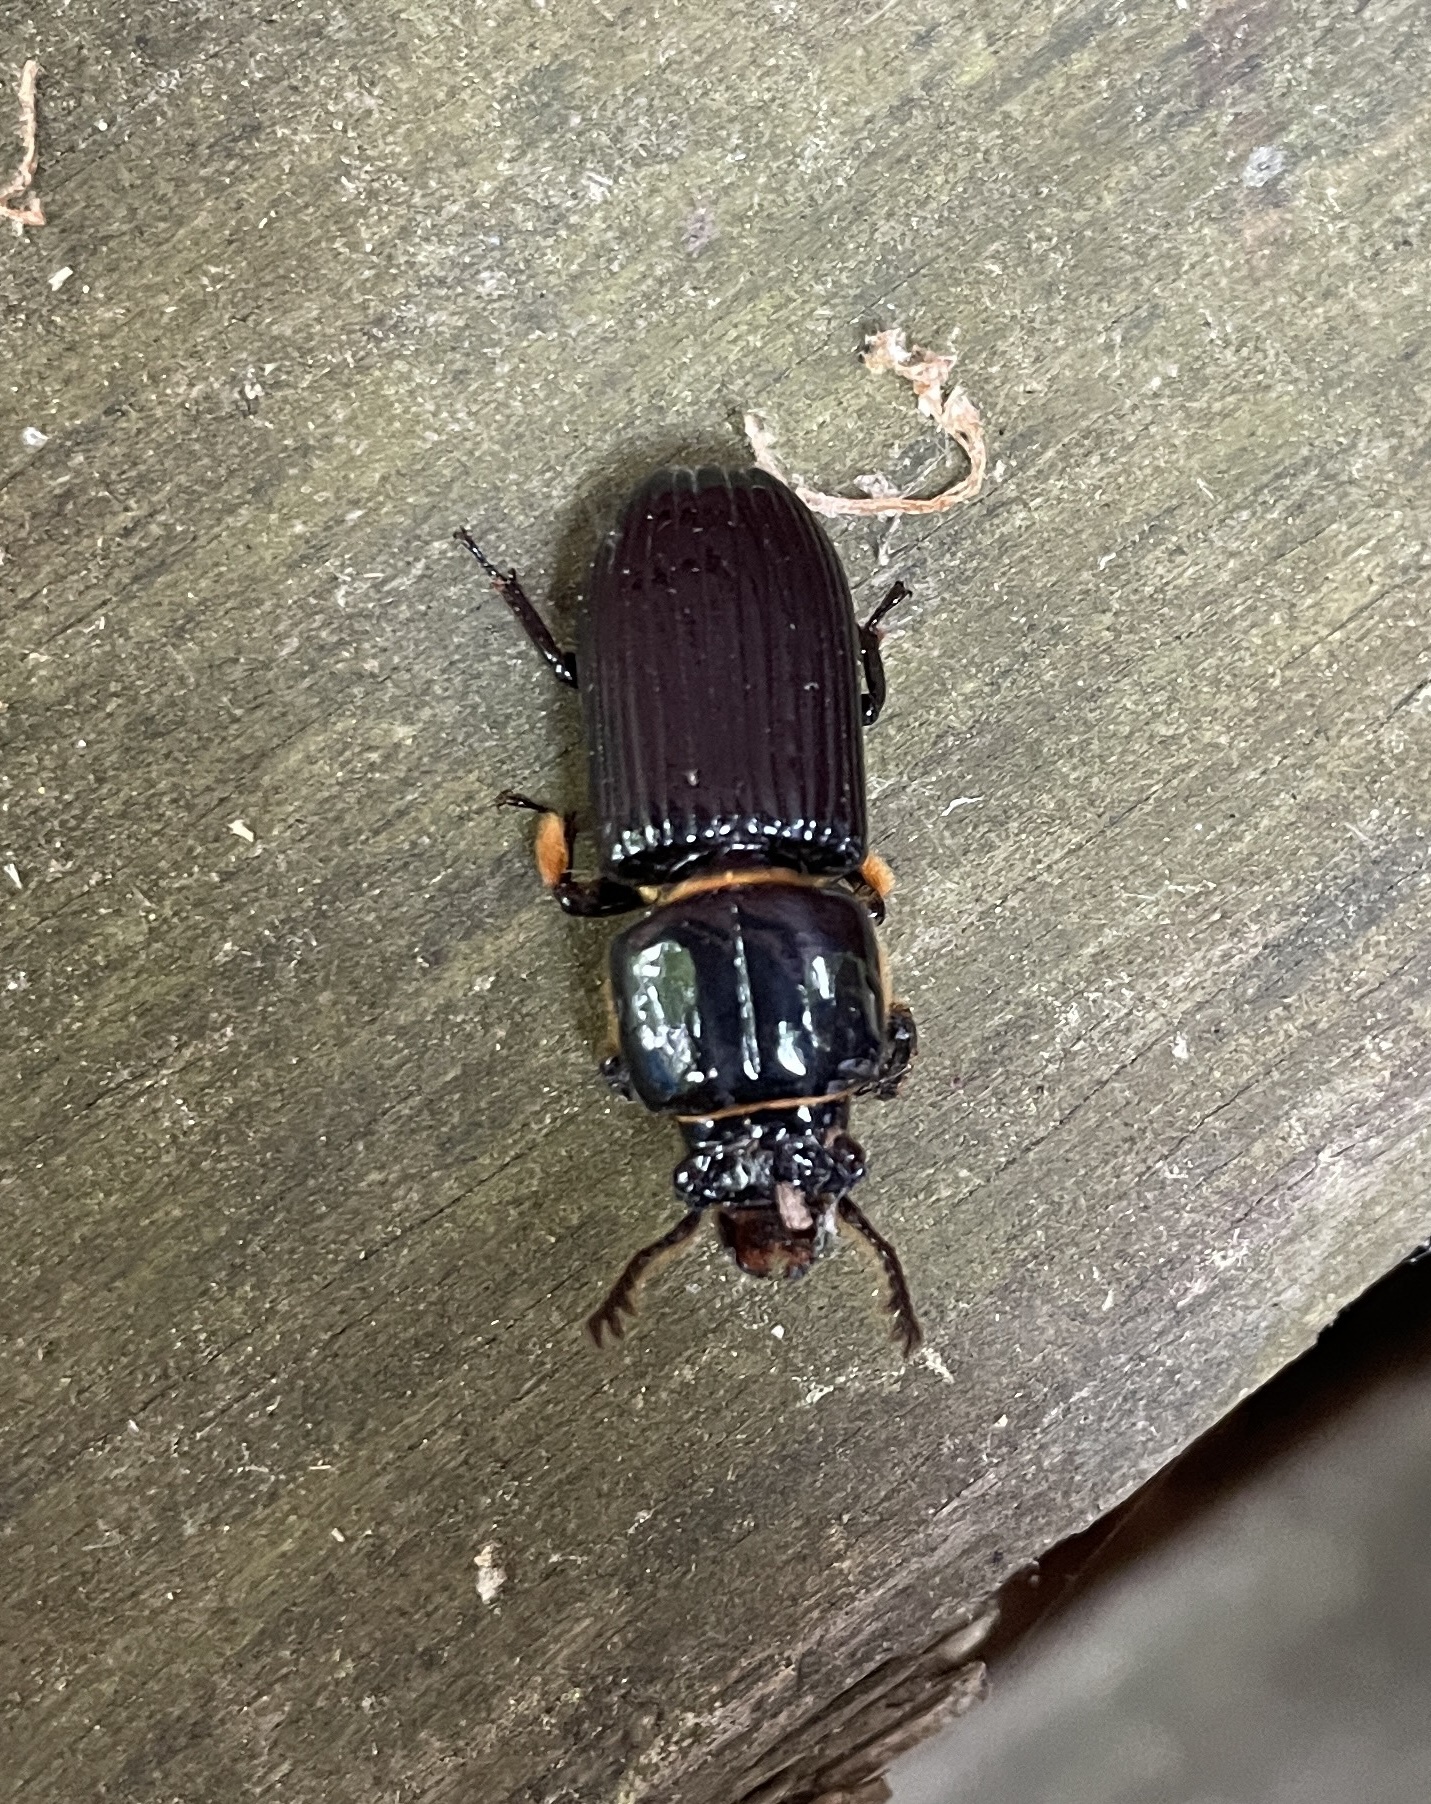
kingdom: Animalia
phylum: Arthropoda
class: Insecta
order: Coleoptera
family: Passalidae
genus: Odontotaenius
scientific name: Odontotaenius disjunctus
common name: Patent leather beetle
